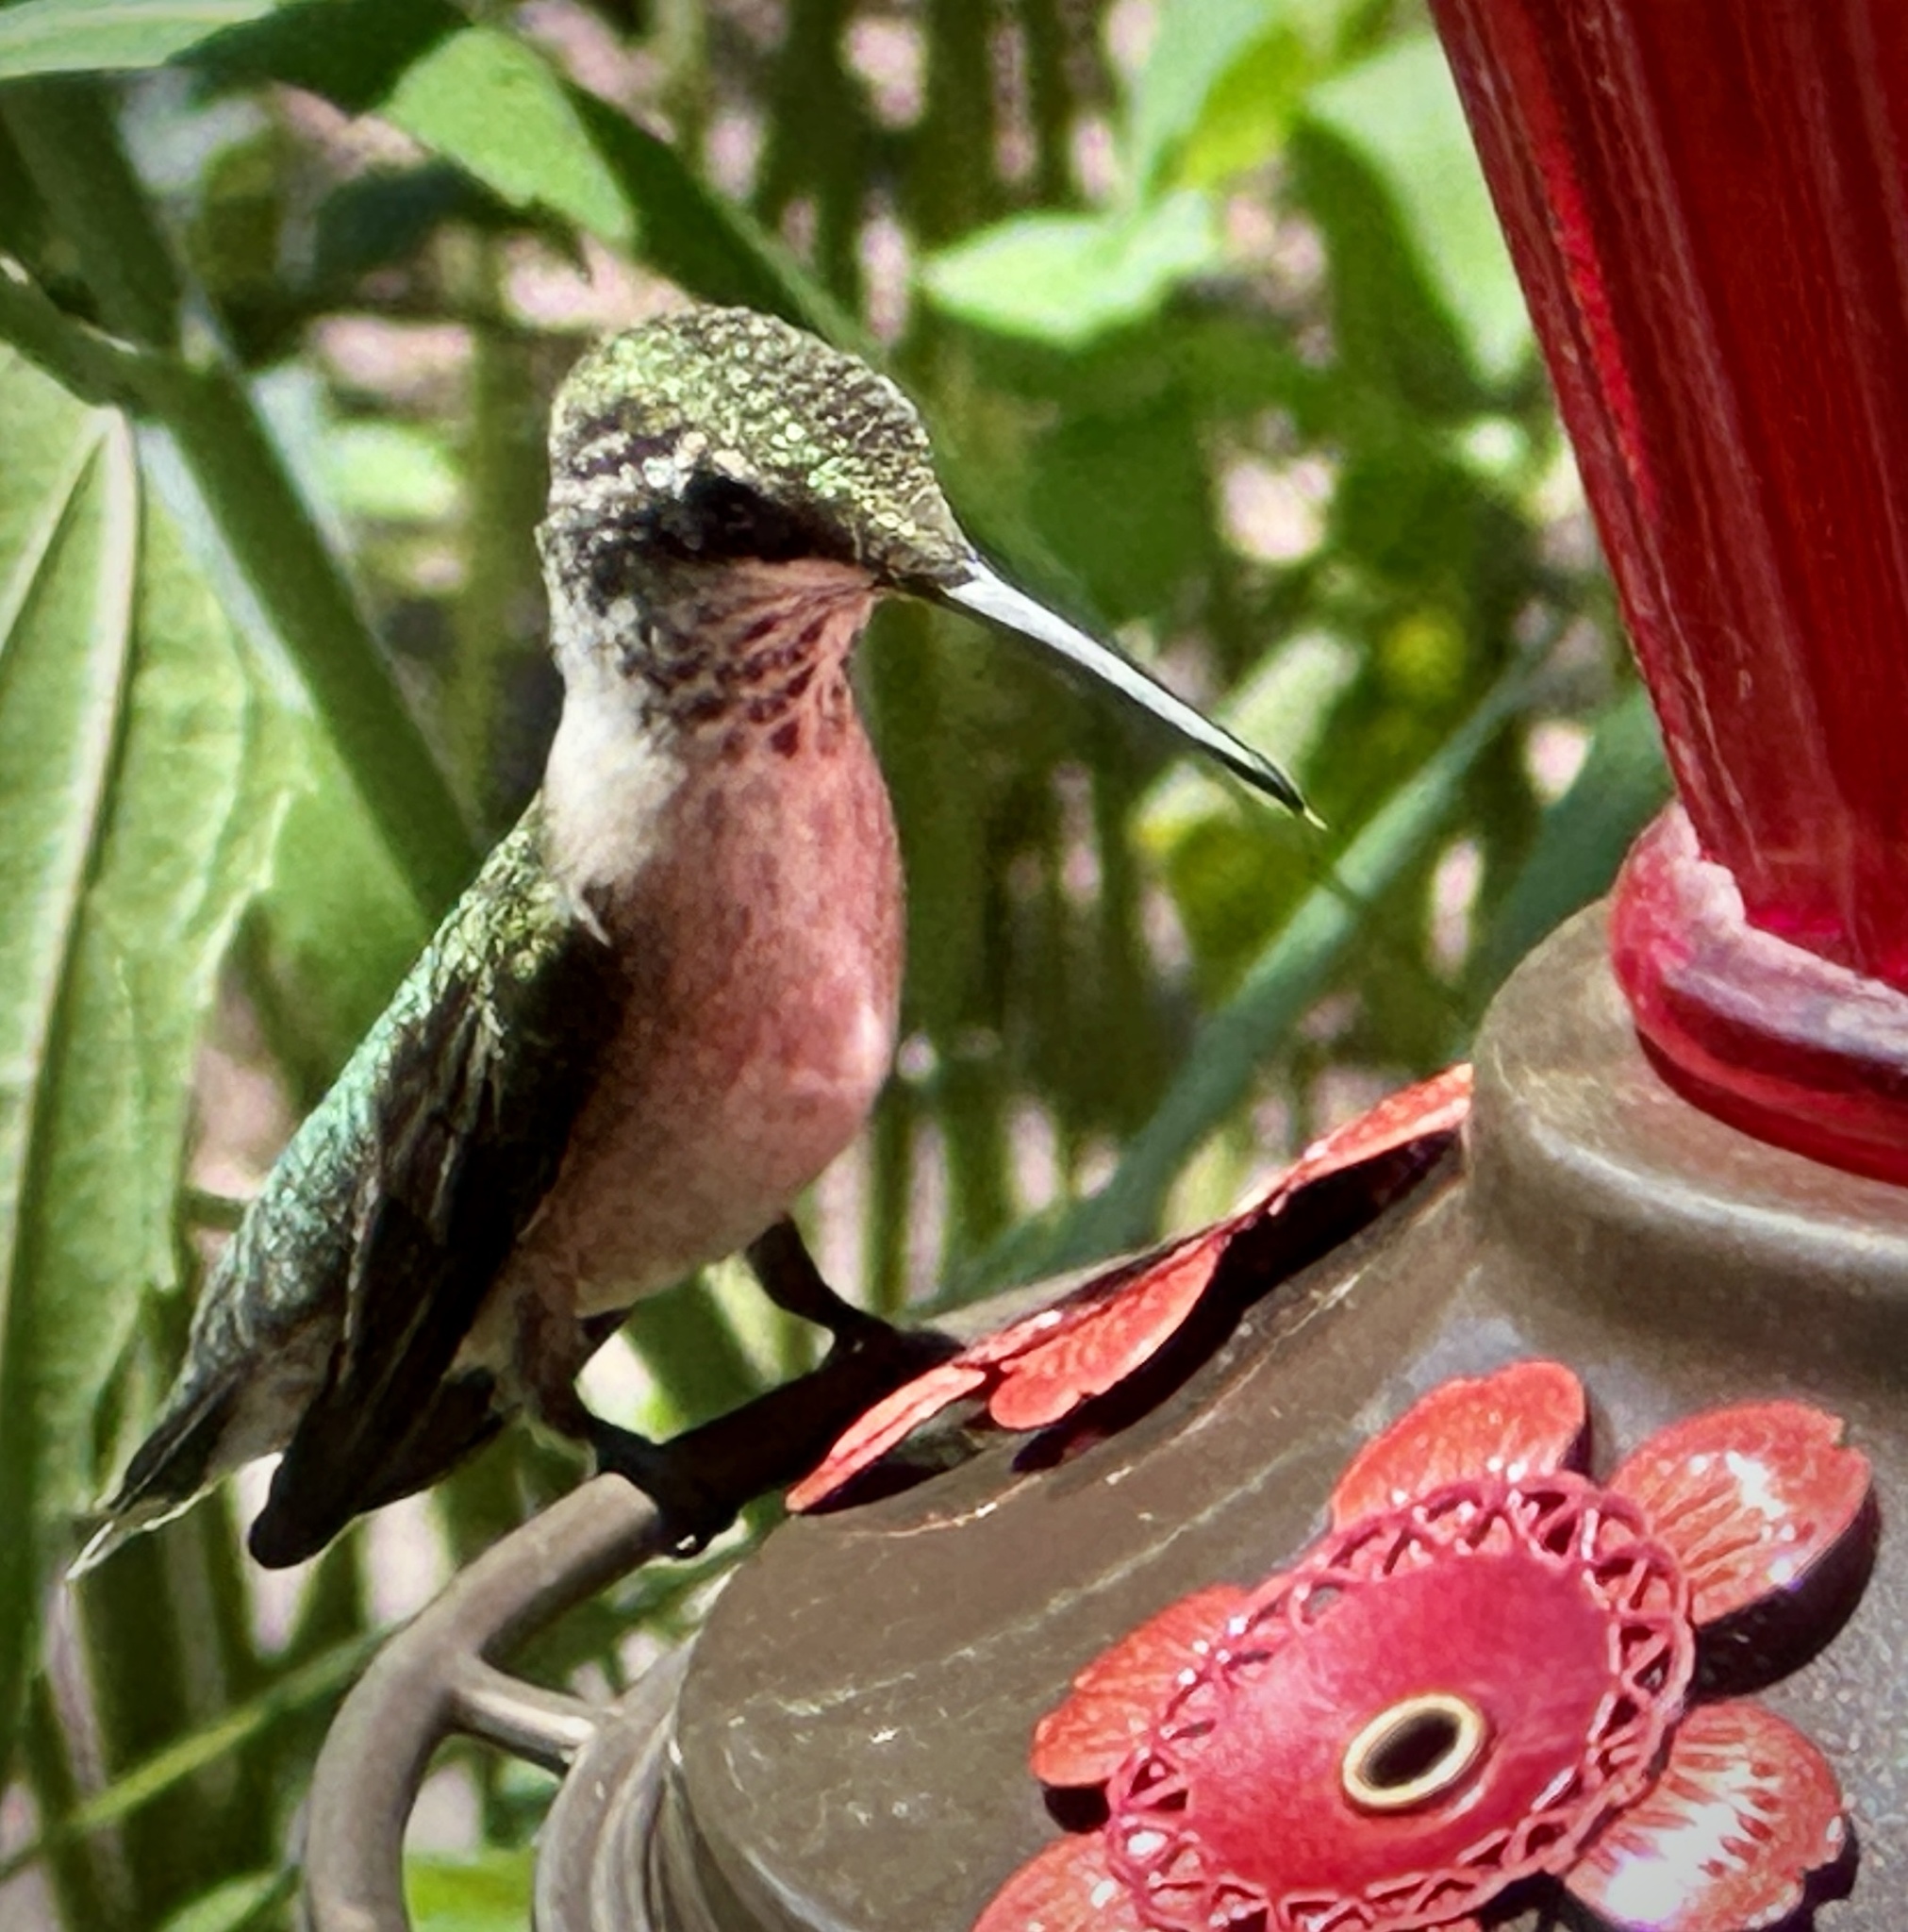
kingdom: Animalia
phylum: Chordata
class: Aves
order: Apodiformes
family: Trochilidae
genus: Archilochus
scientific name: Archilochus colubris
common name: Ruby-throated hummingbird
